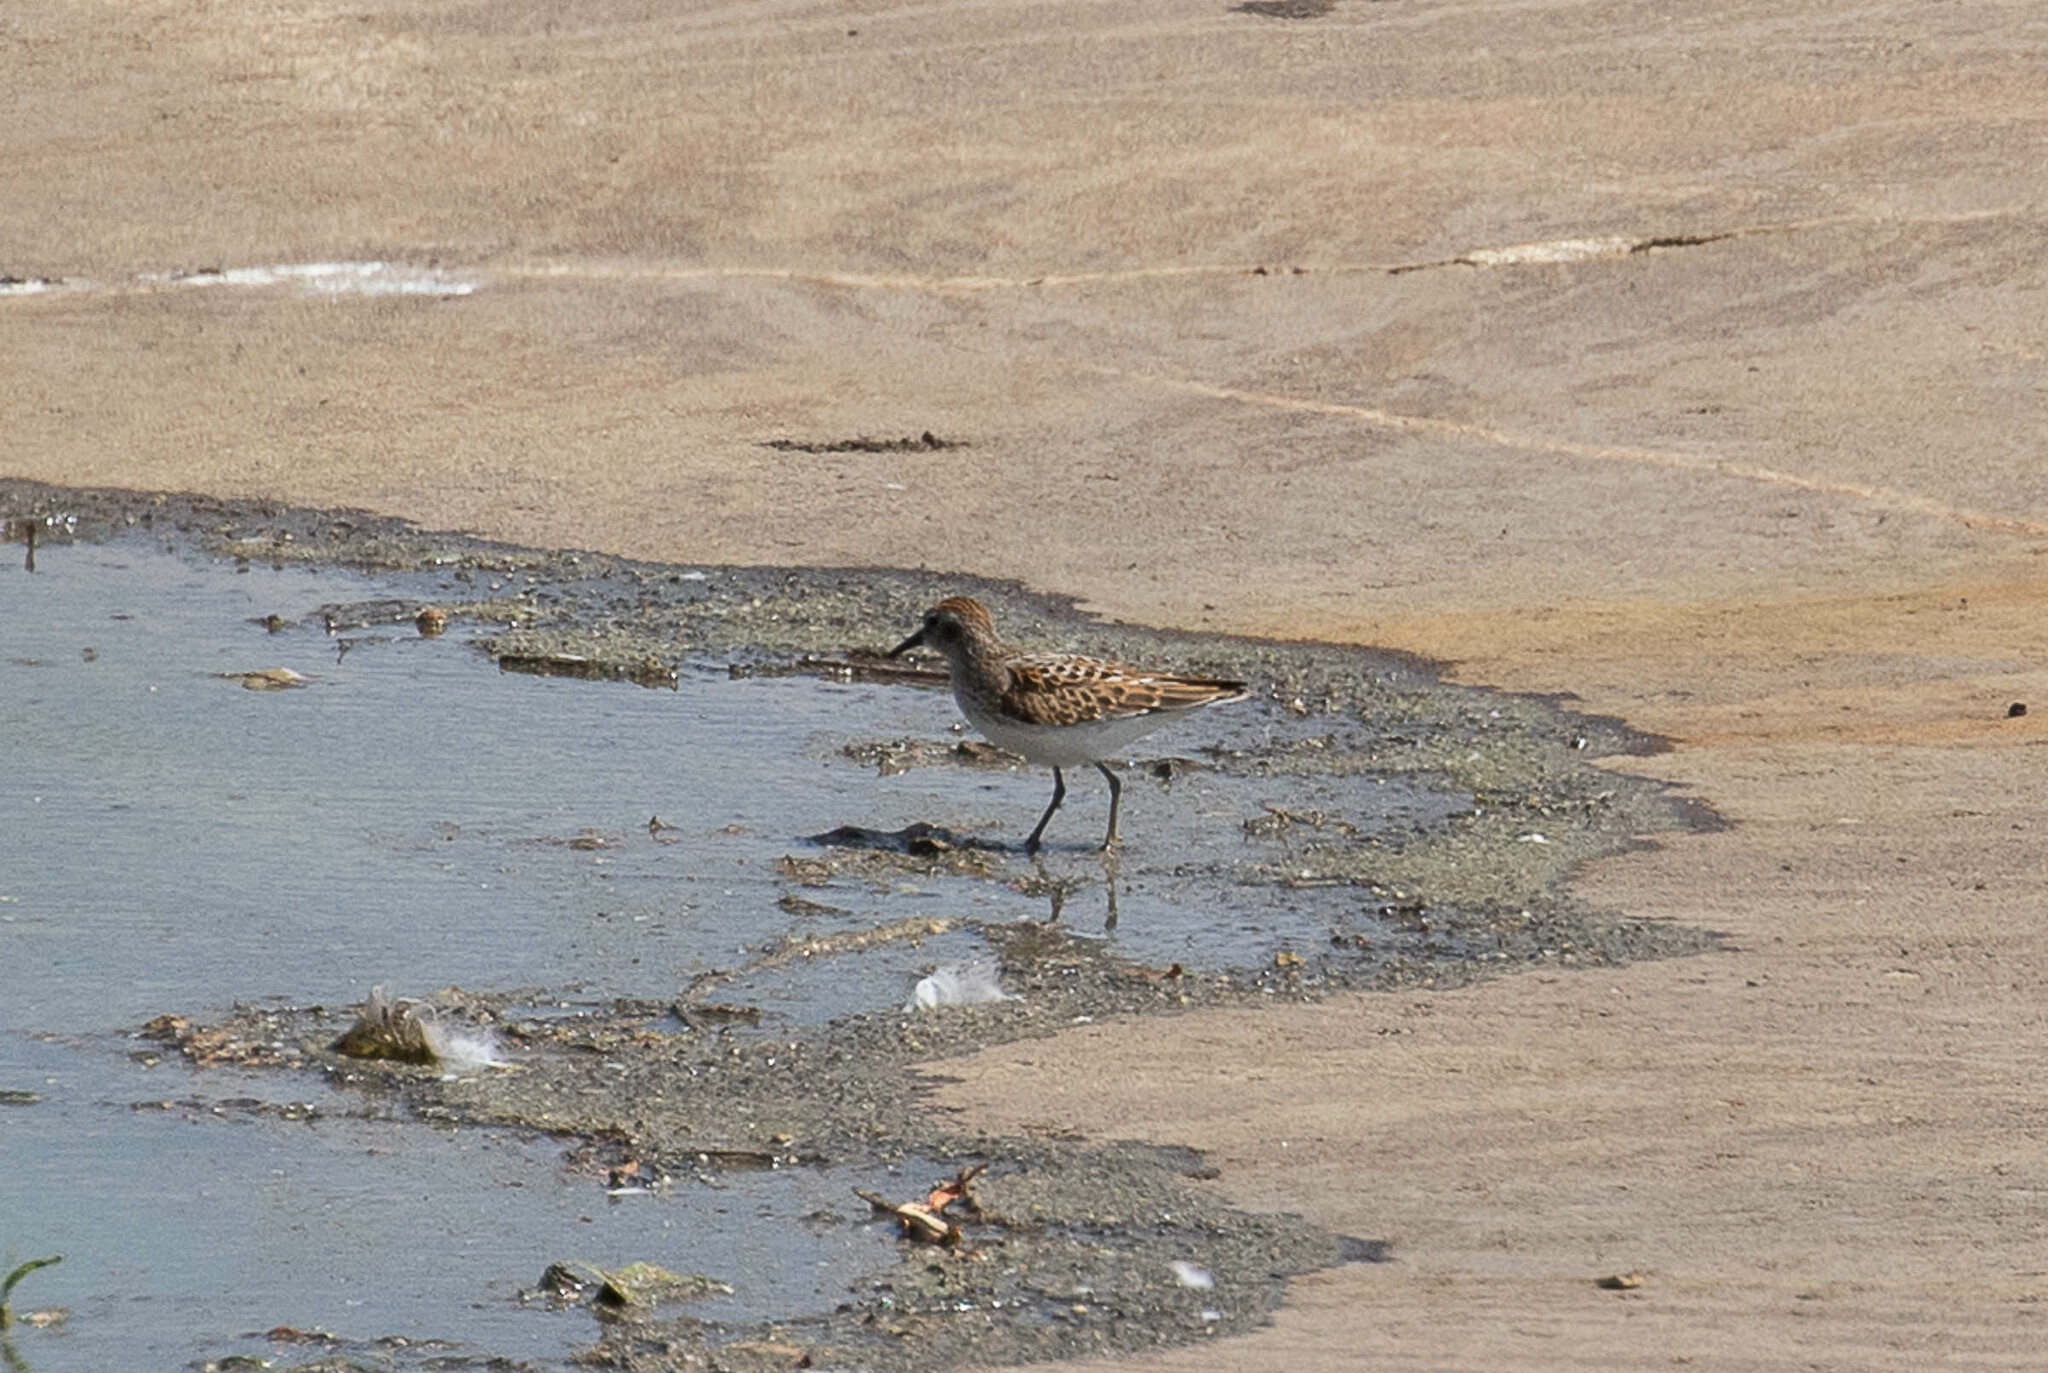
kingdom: Animalia
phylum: Chordata
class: Aves
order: Charadriiformes
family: Scolopacidae
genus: Calidris
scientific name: Calidris minutilla
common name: Least sandpiper
